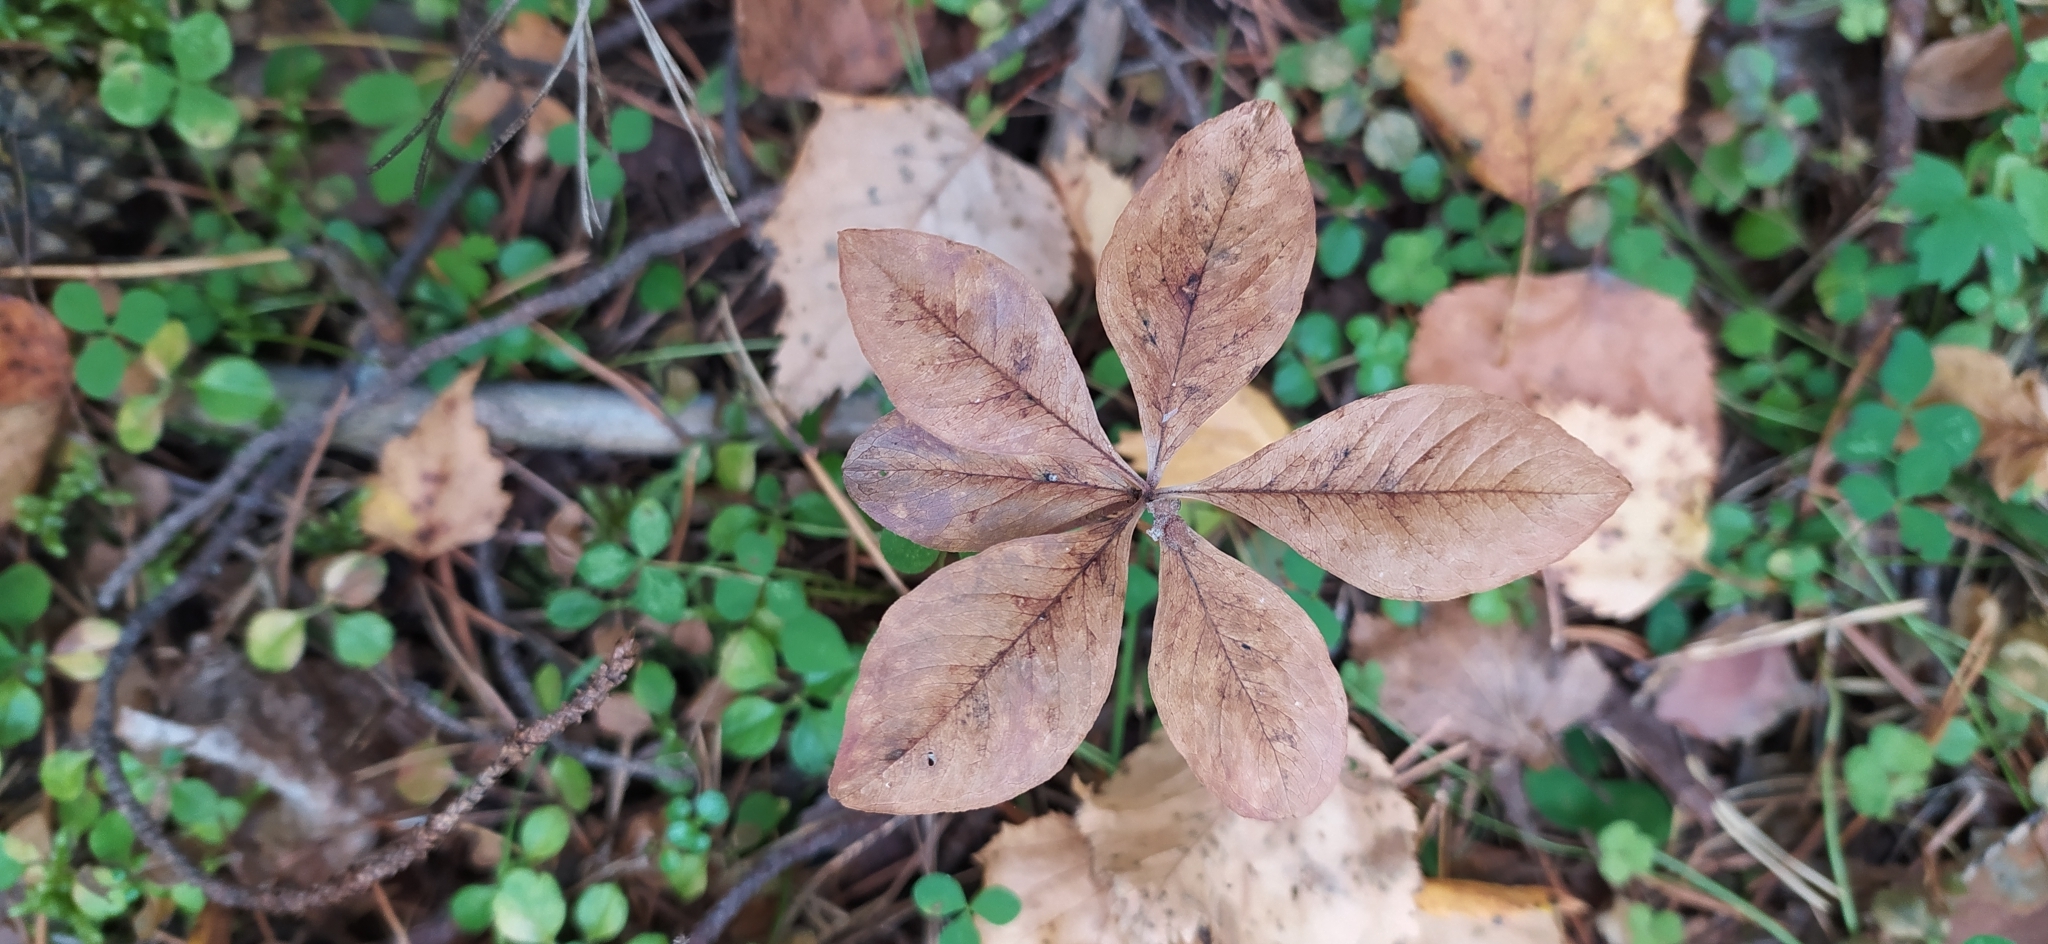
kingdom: Plantae
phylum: Tracheophyta
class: Magnoliopsida
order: Ericales
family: Primulaceae
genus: Lysimachia
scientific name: Lysimachia europaea
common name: Arctic starflower
